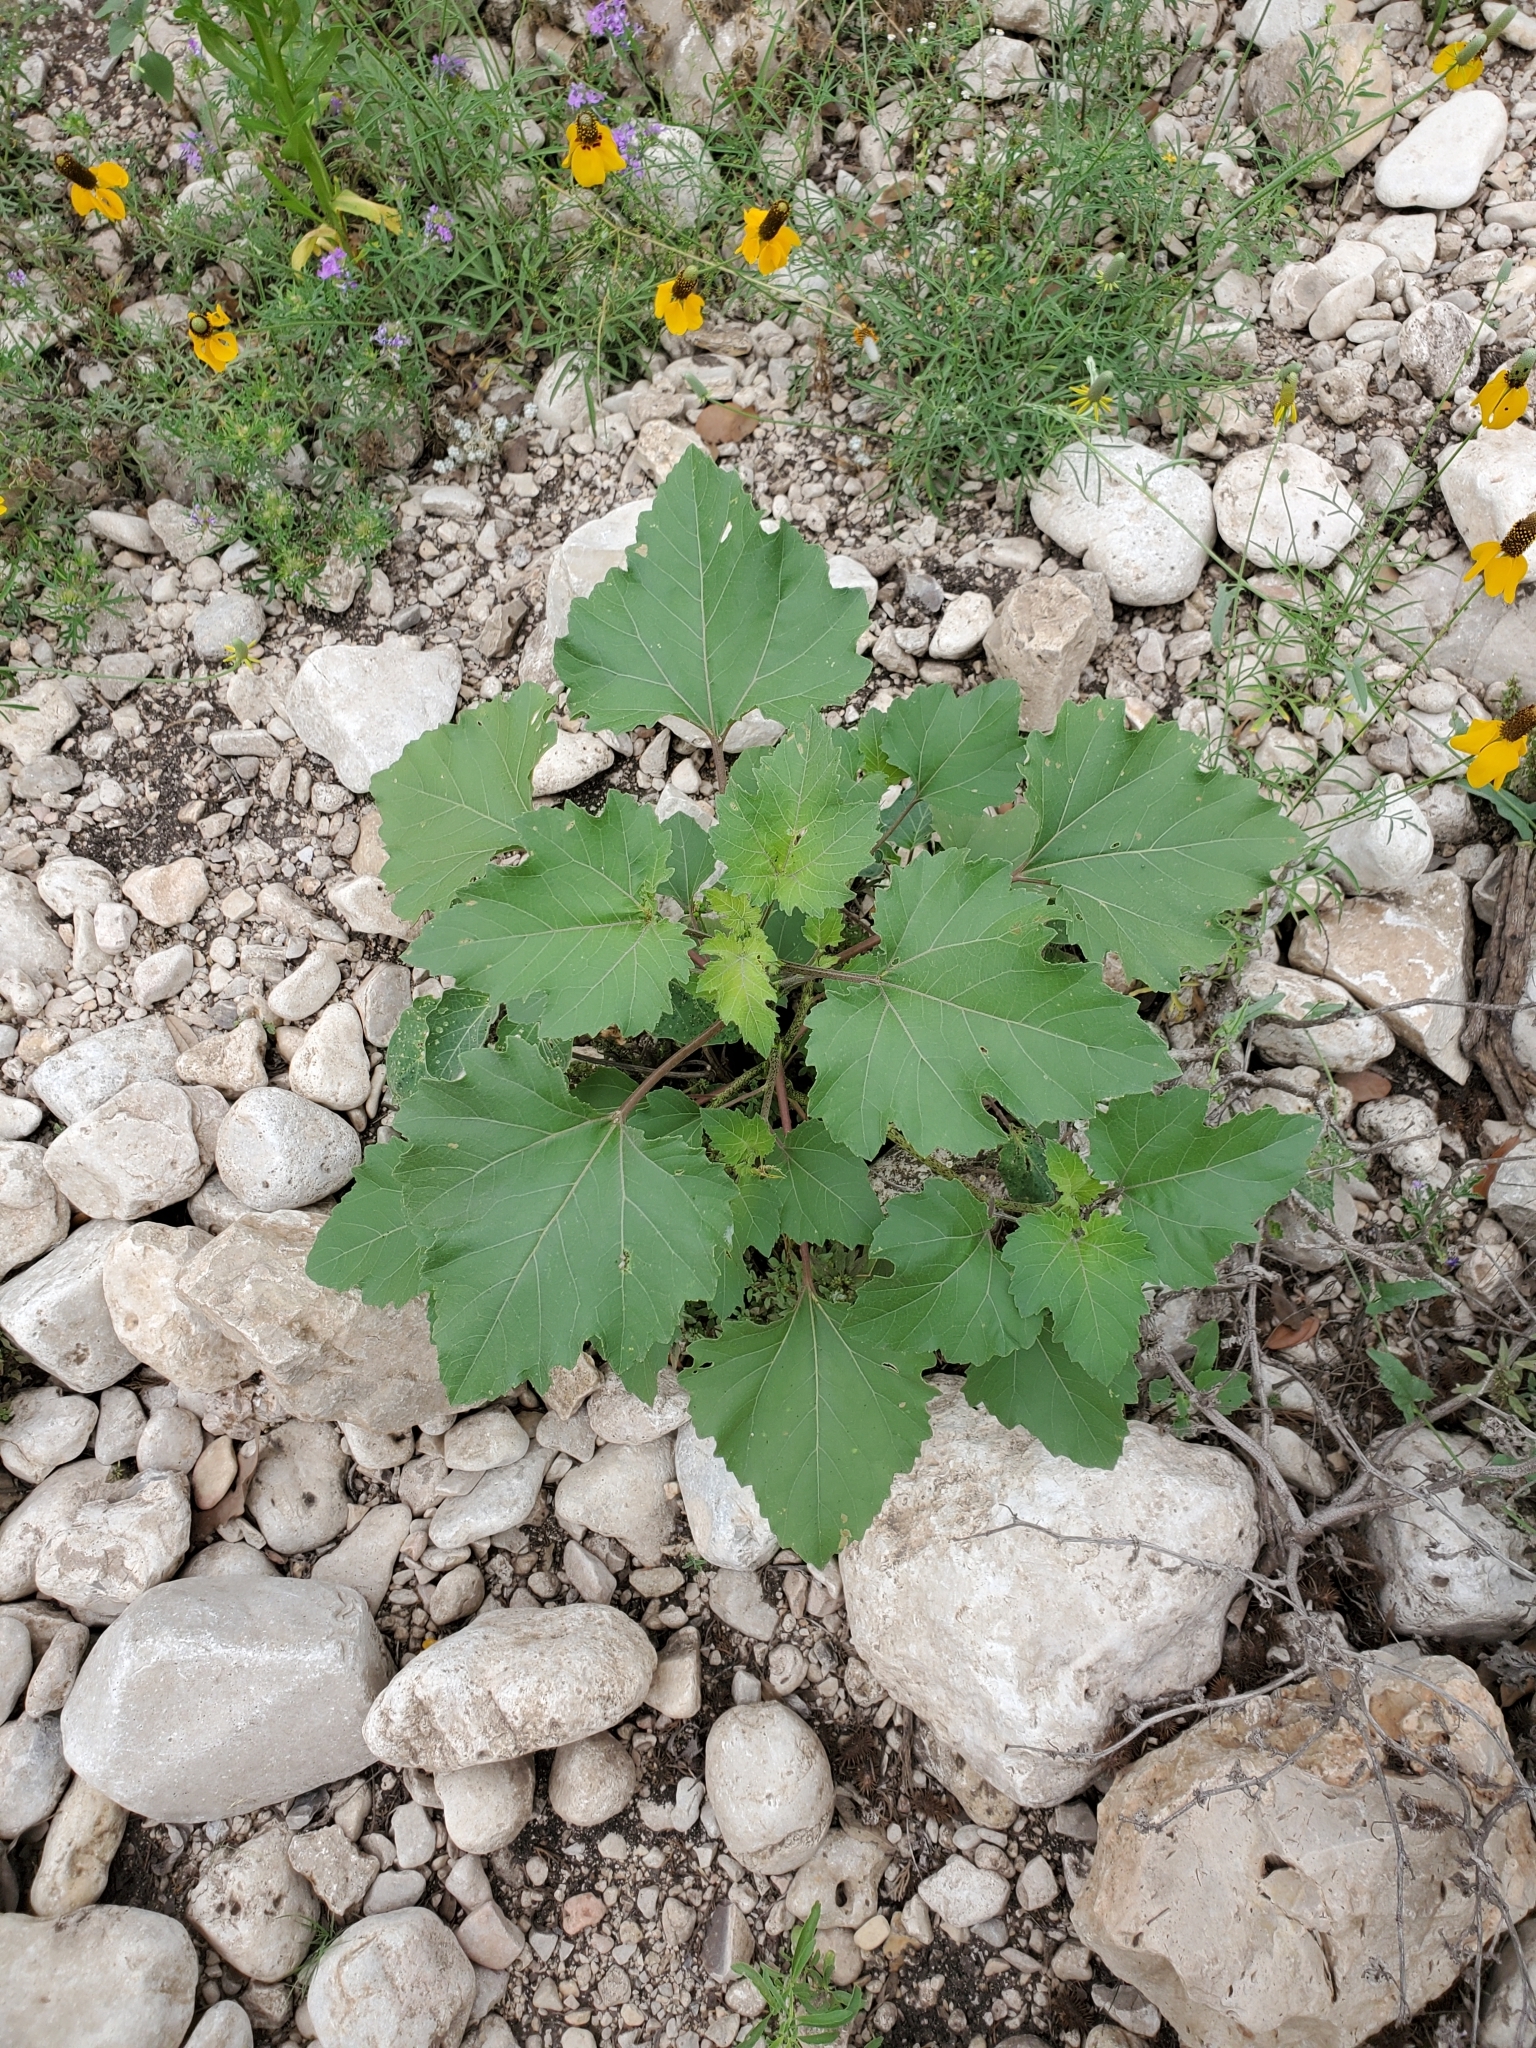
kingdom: Plantae
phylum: Tracheophyta
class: Magnoliopsida
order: Asterales
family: Asteraceae
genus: Xanthium
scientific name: Xanthium strumarium
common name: Rough cocklebur
